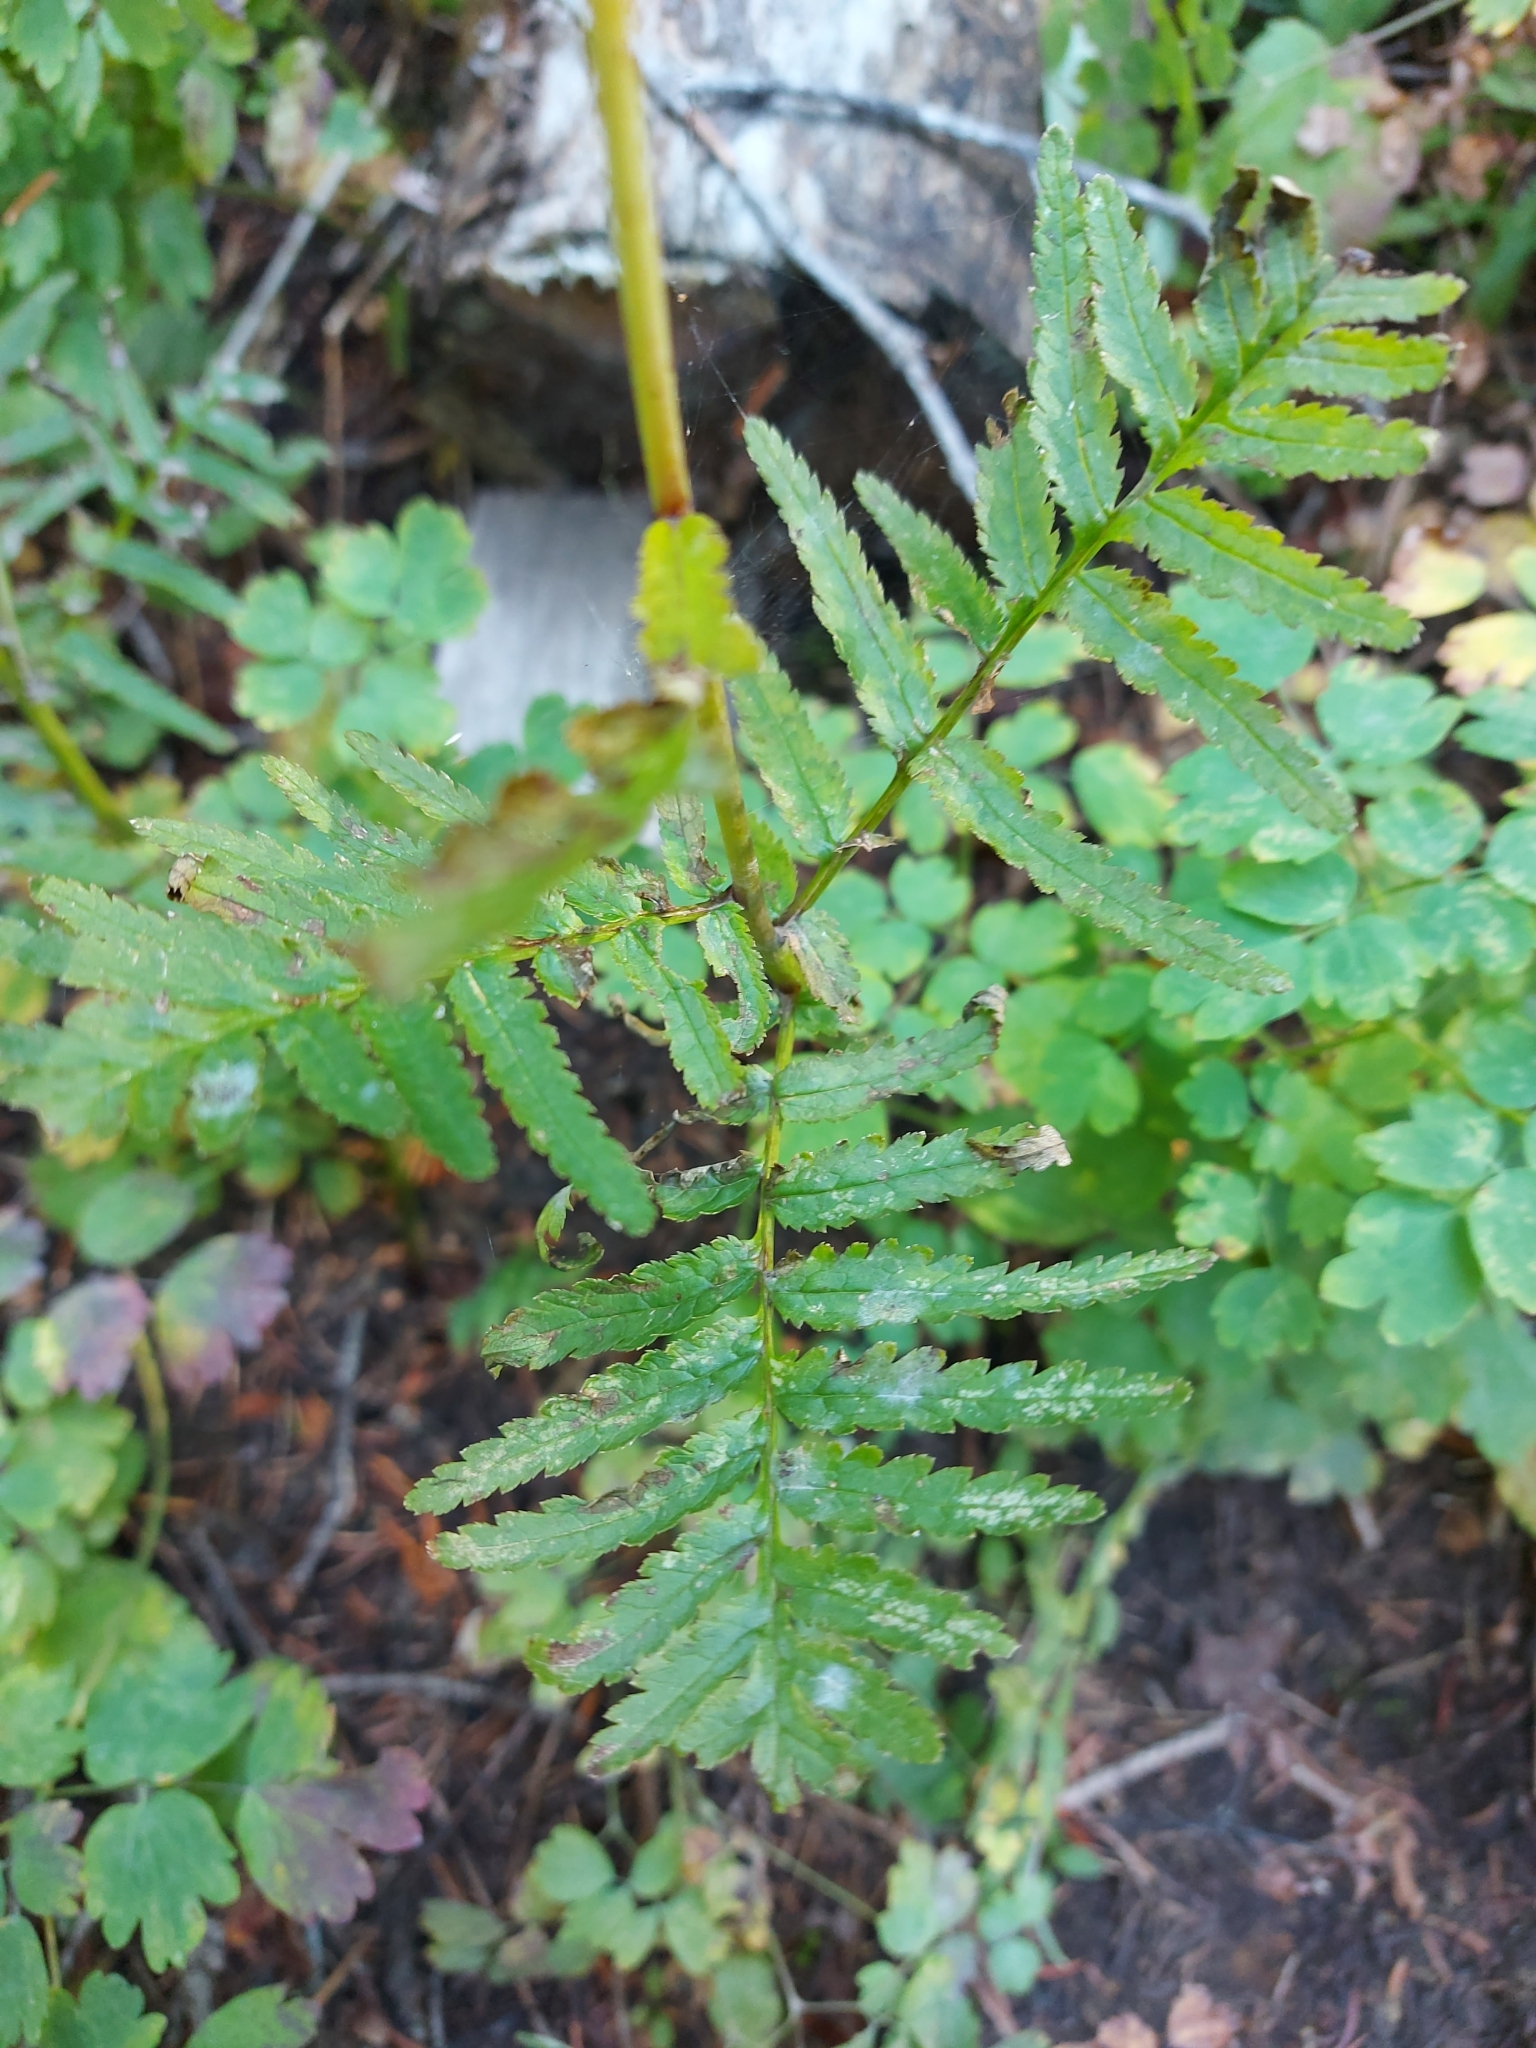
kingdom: Plantae
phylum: Tracheophyta
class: Magnoliopsida
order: Lamiales
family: Orobanchaceae
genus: Pedicularis
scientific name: Pedicularis bracteosa
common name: Bracted lousewort
